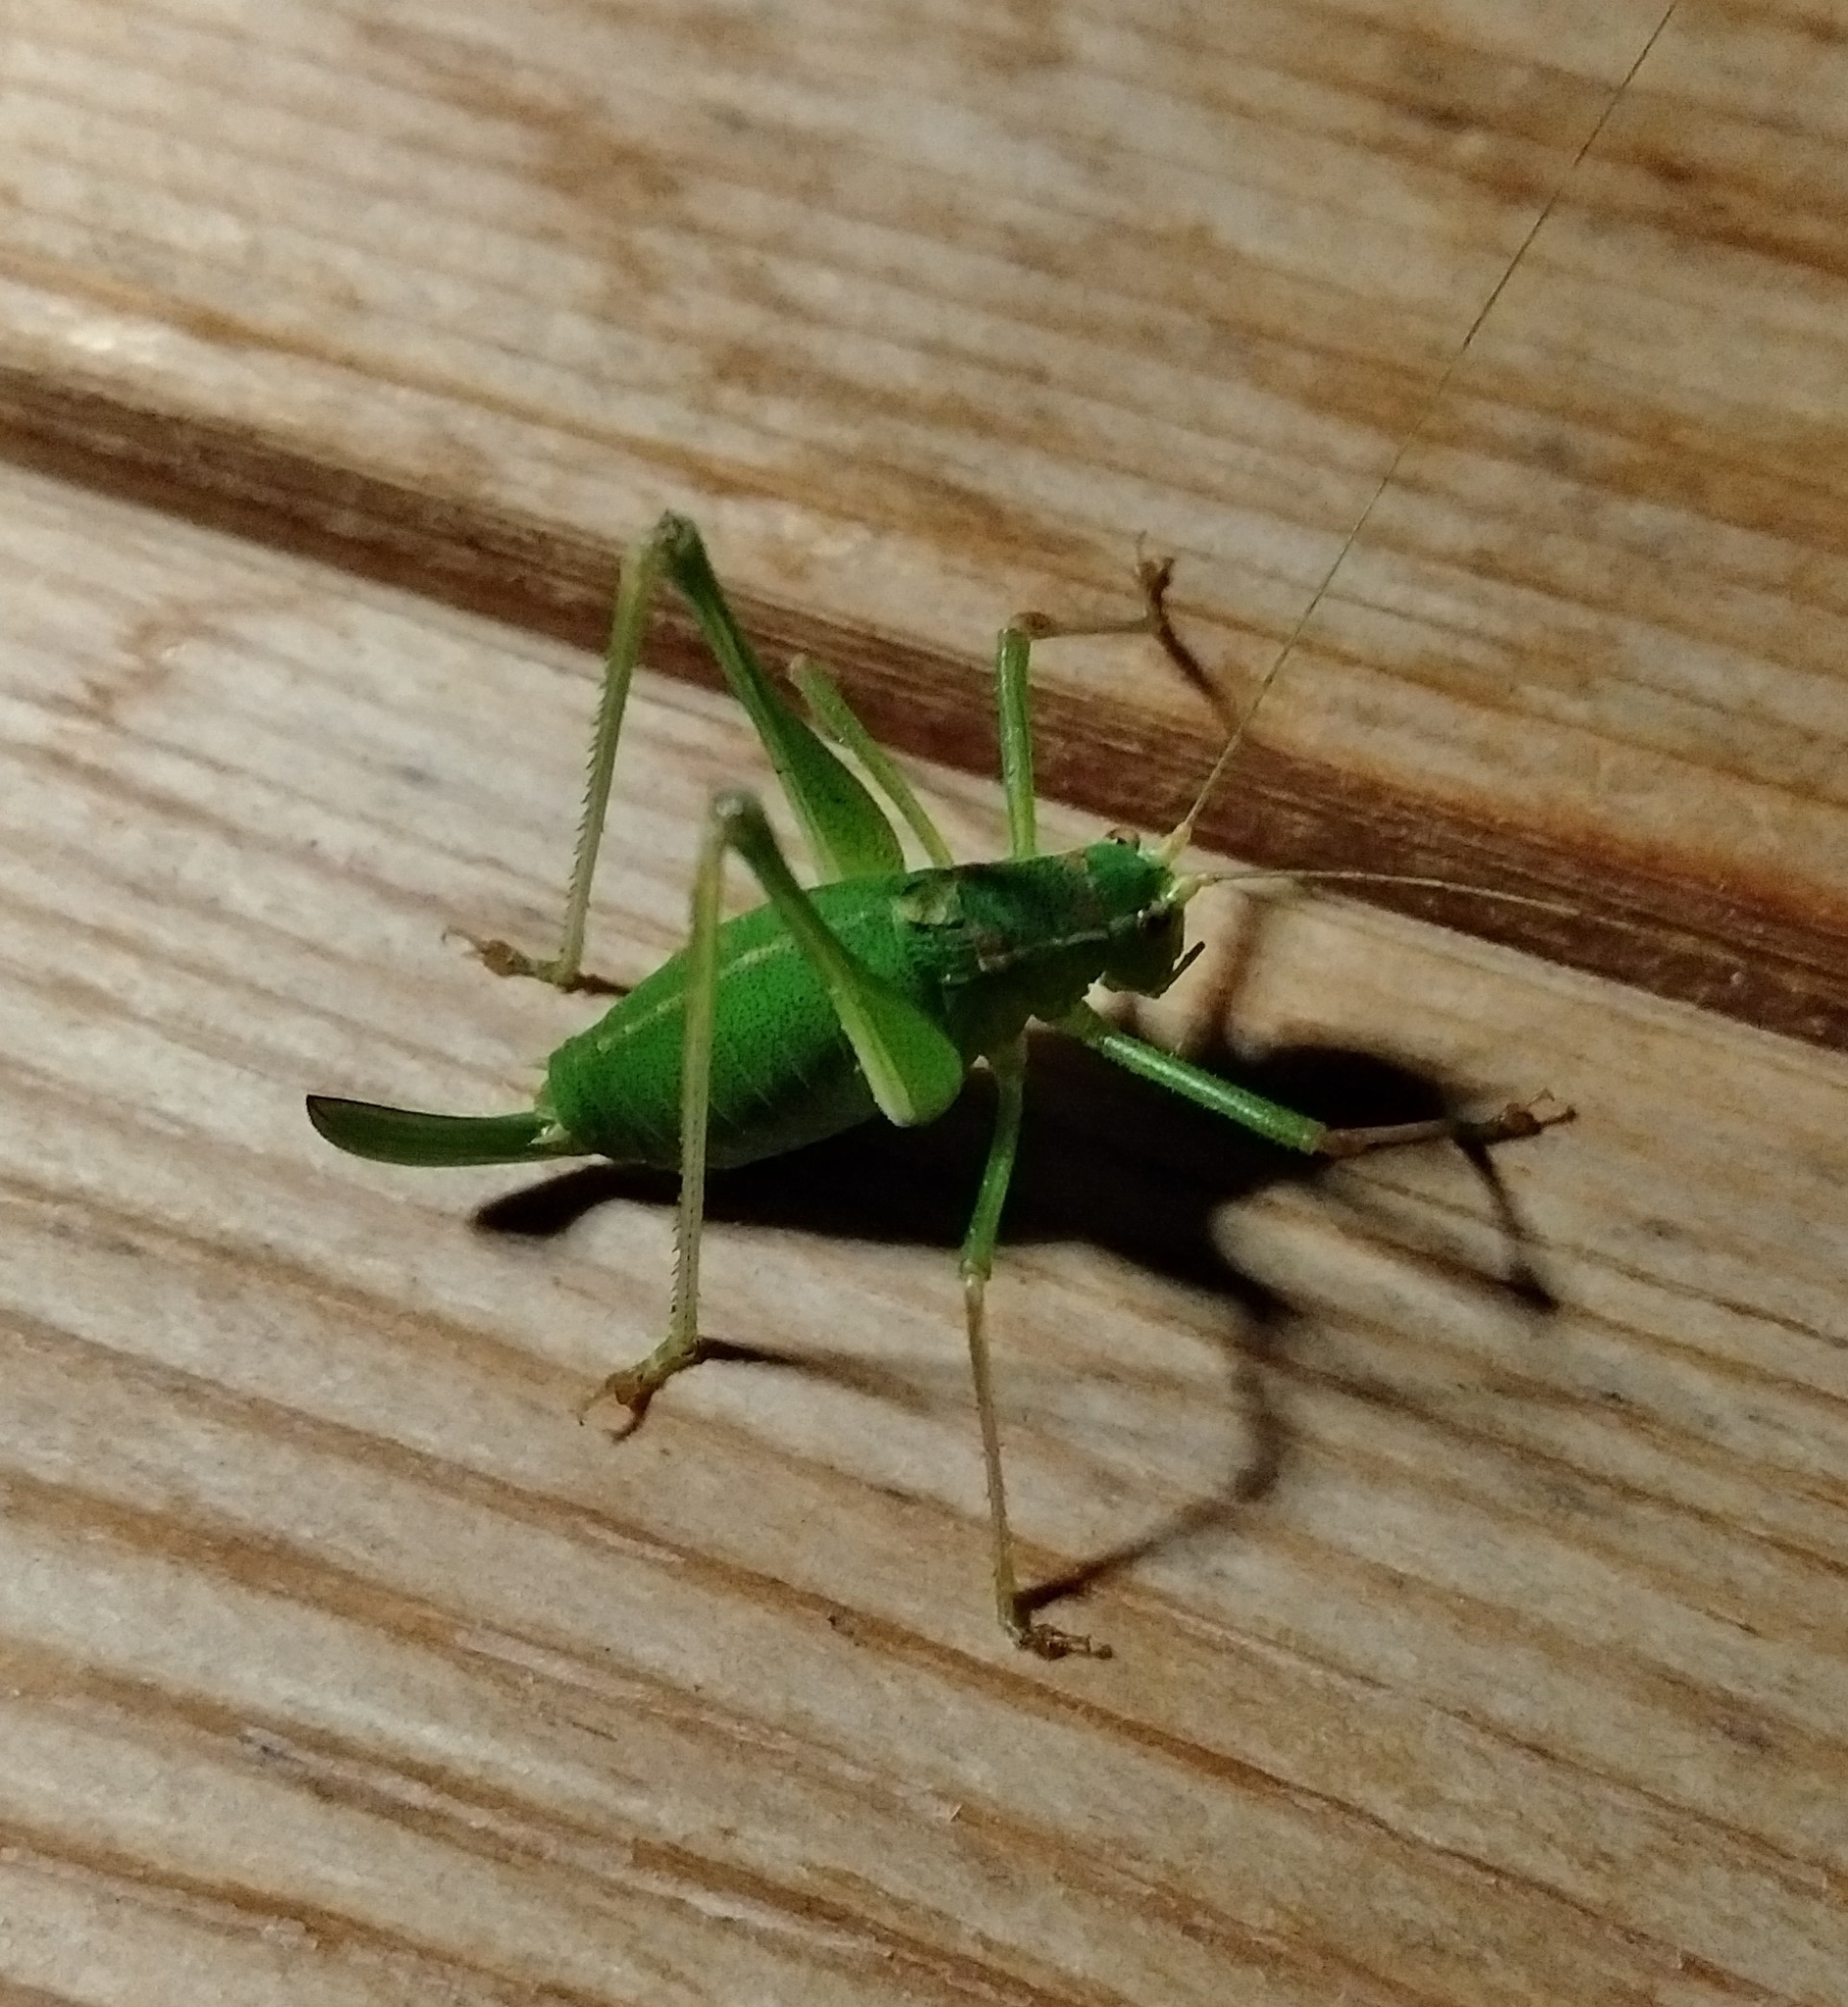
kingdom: Animalia
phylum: Arthropoda
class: Insecta
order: Orthoptera
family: Tettigoniidae
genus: Leptophyes
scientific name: Leptophyes punctatissima
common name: Speckled bush-cricket
